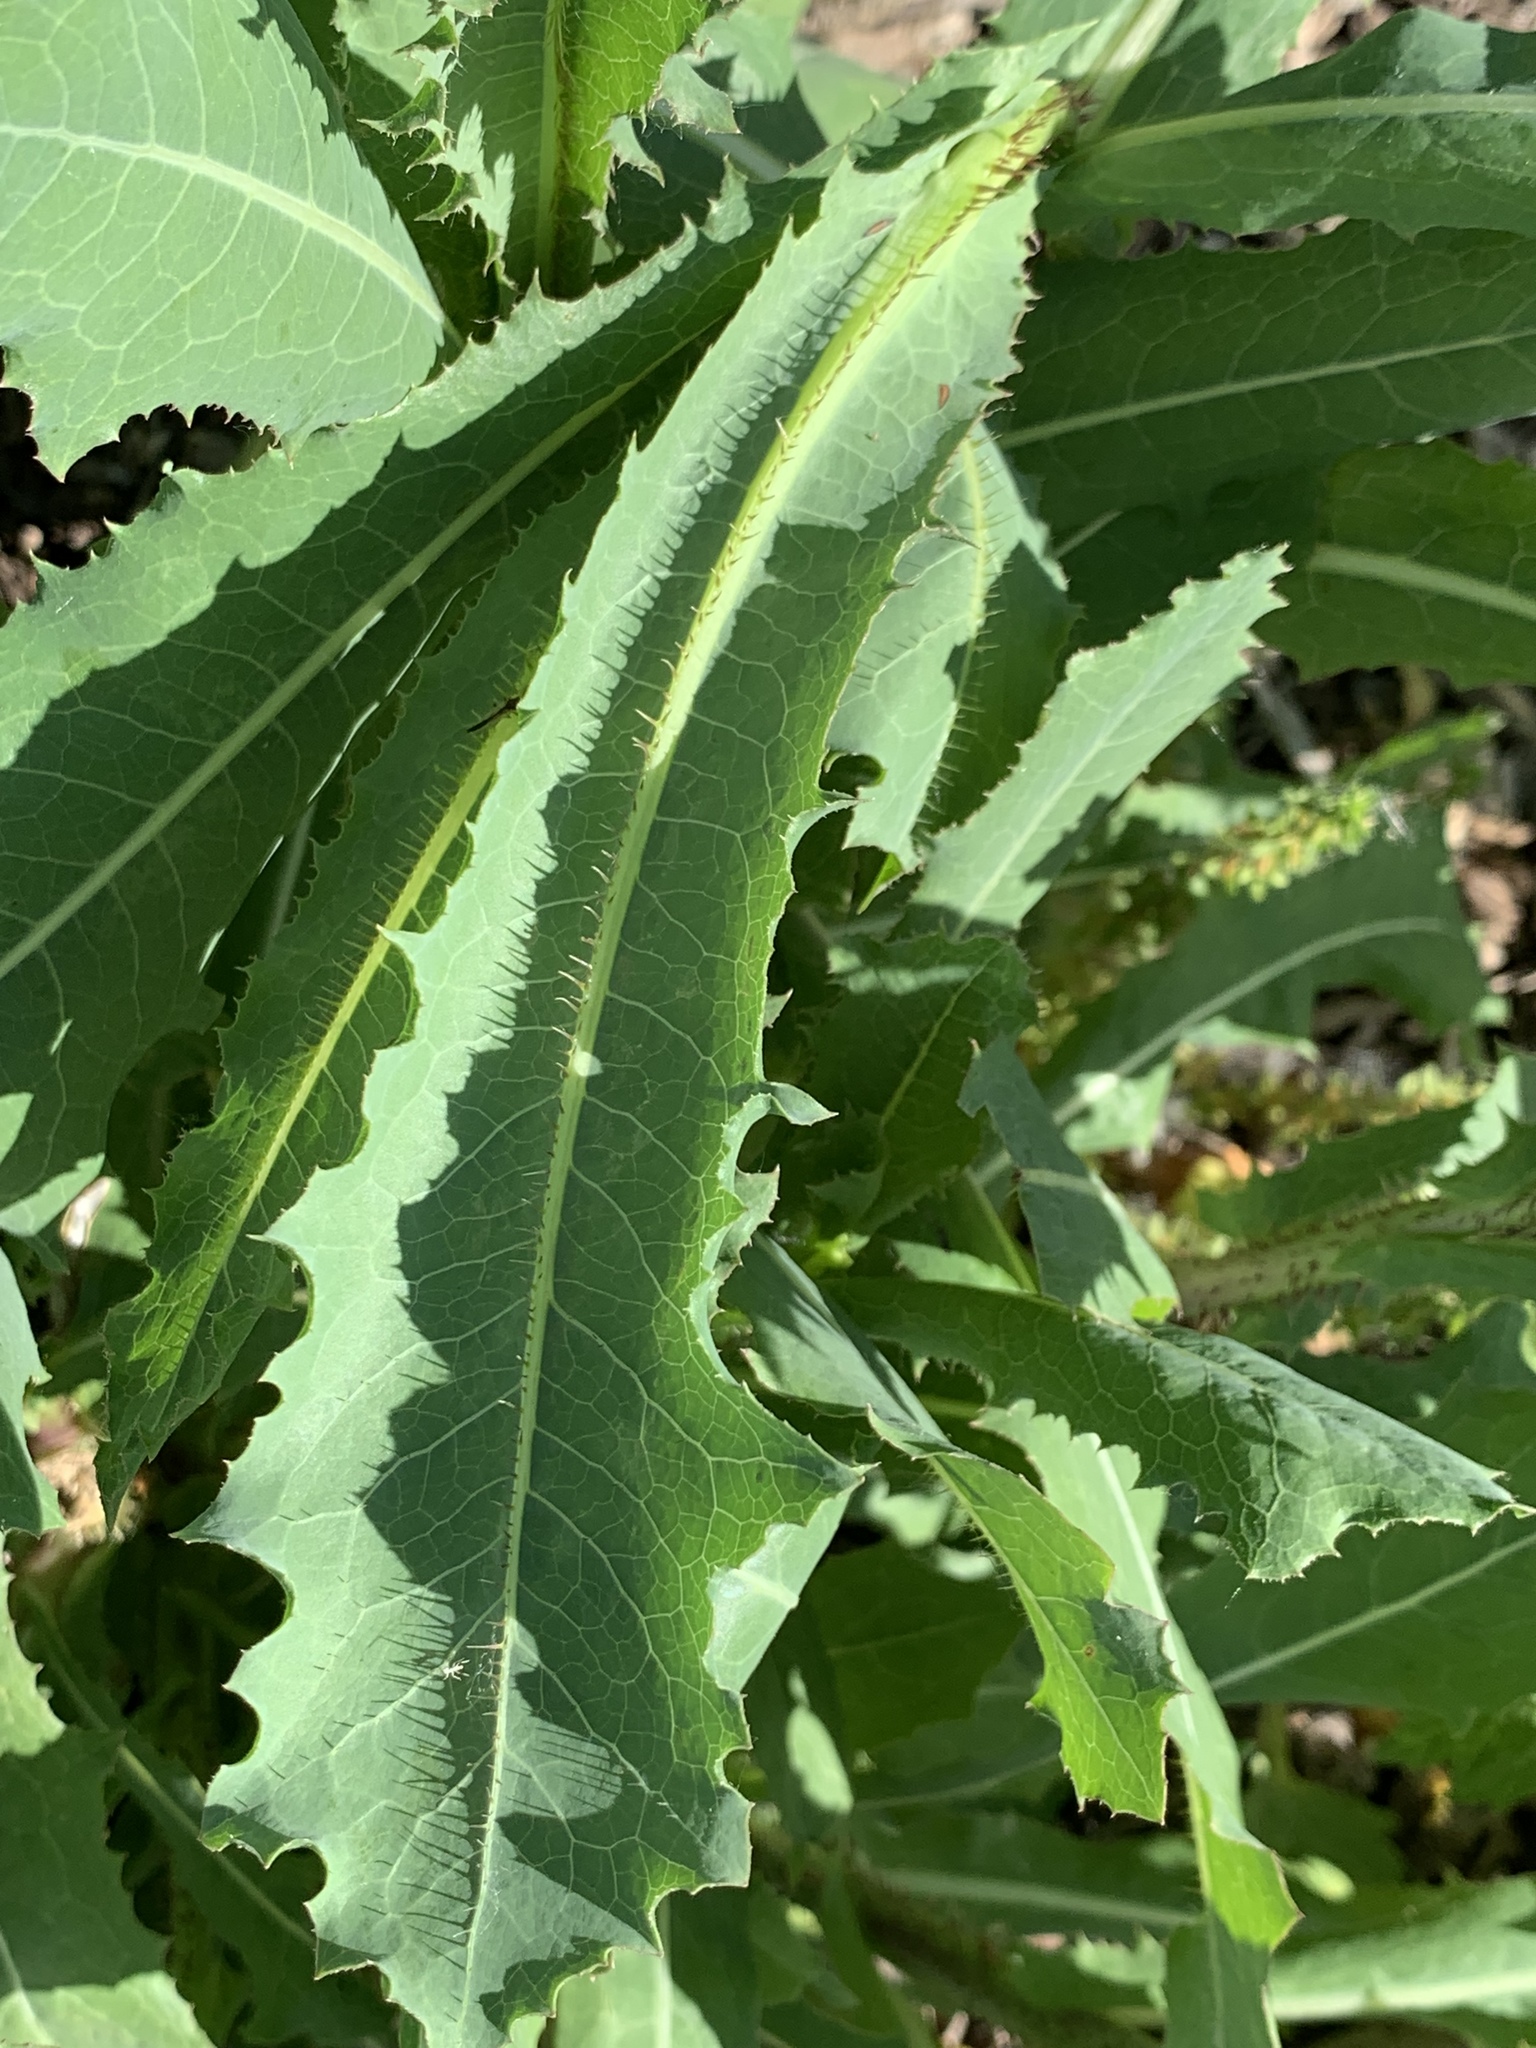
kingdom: Plantae
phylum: Tracheophyta
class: Magnoliopsida
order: Asterales
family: Asteraceae
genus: Lactuca
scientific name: Lactuca serriola
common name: Prickly lettuce
